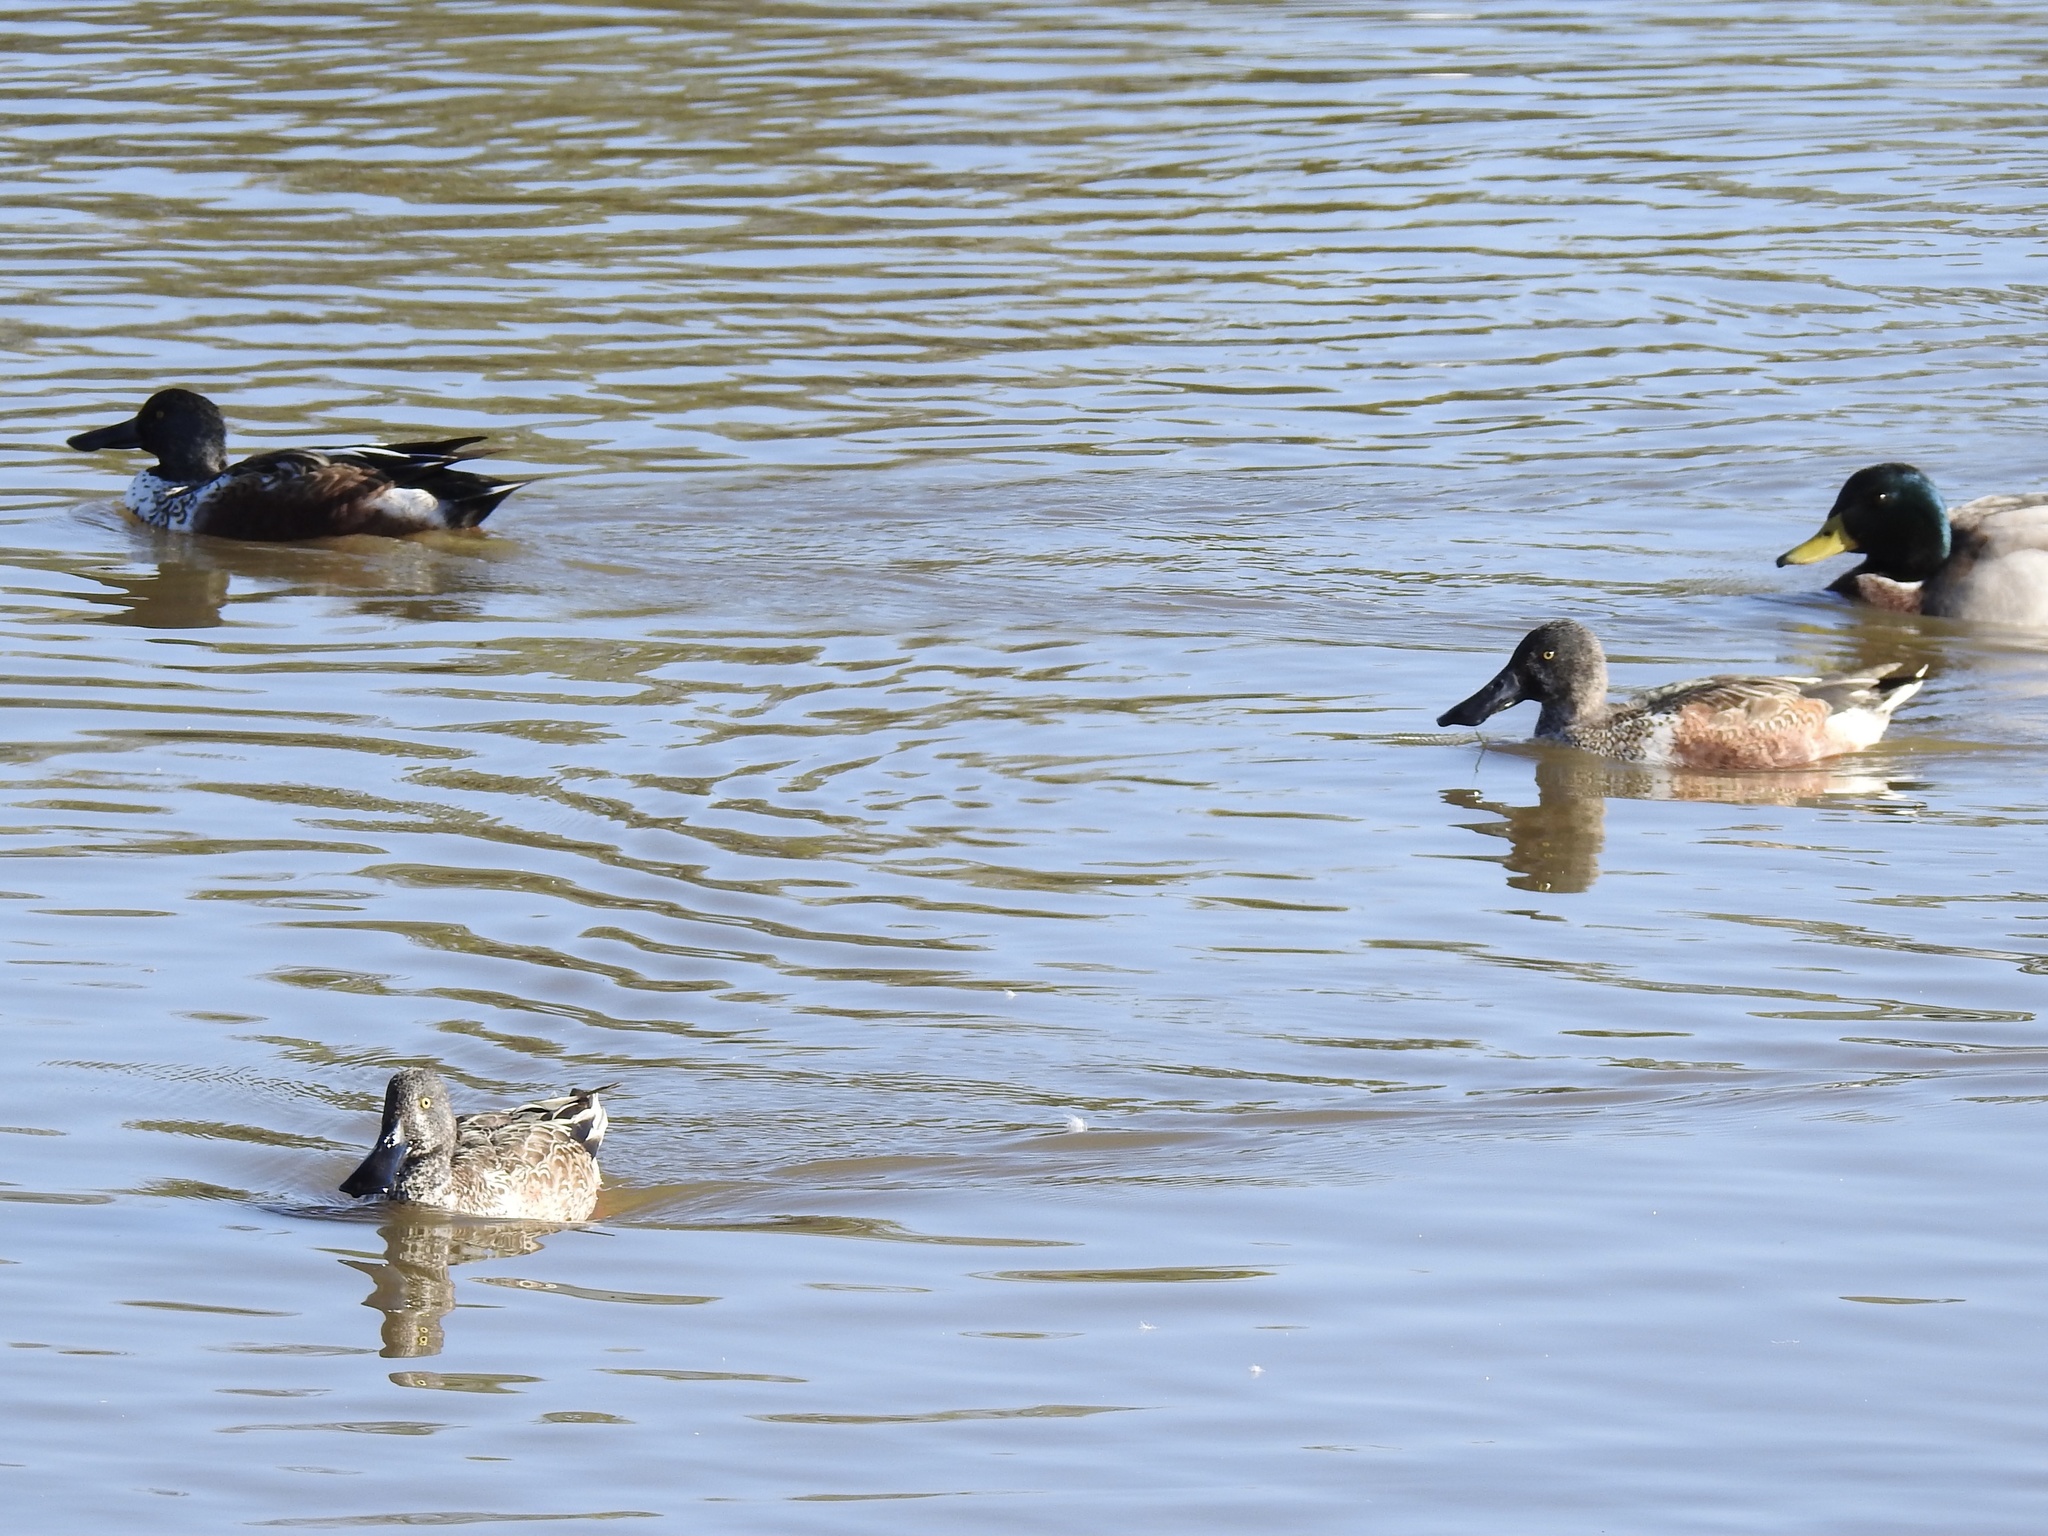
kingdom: Animalia
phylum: Chordata
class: Aves
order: Anseriformes
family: Anatidae
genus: Spatula
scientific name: Spatula clypeata
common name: Northern shoveler
